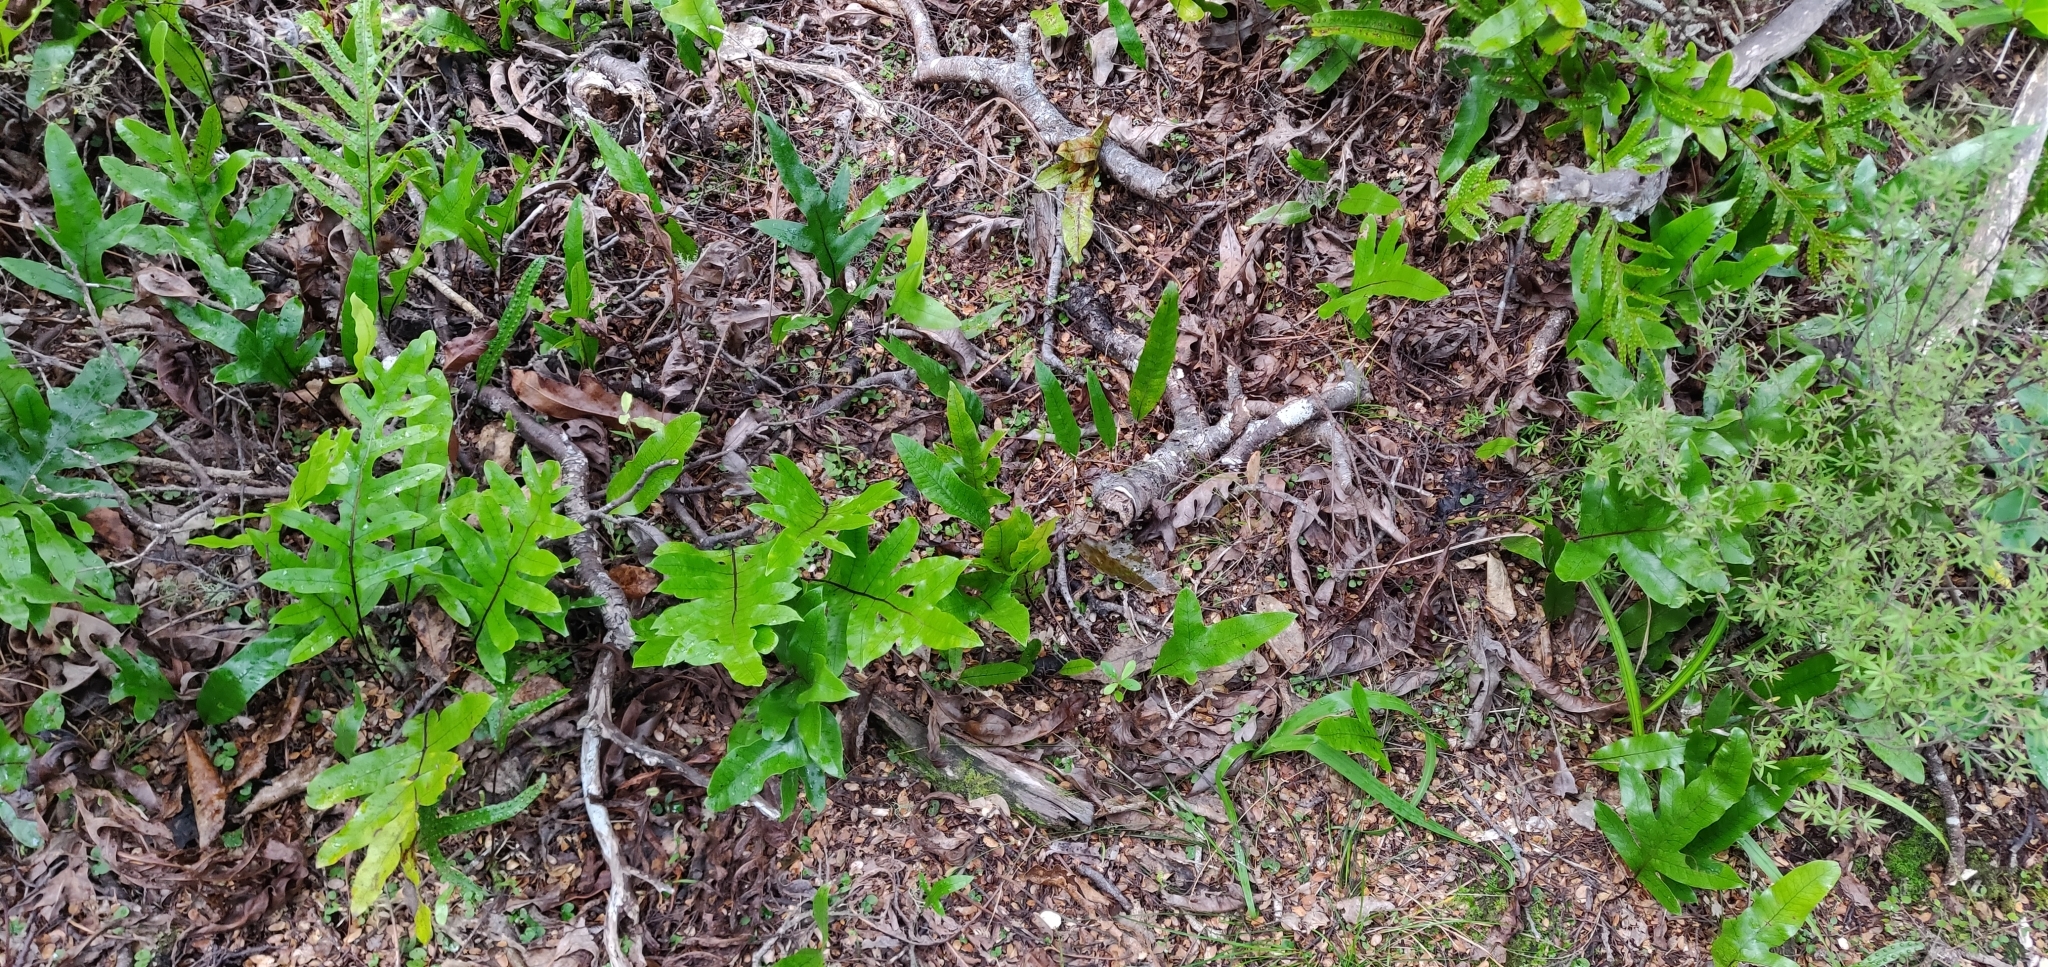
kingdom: Plantae
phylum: Tracheophyta
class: Polypodiopsida
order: Polypodiales
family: Polypodiaceae
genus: Lecanopteris
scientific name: Lecanopteris pustulata
